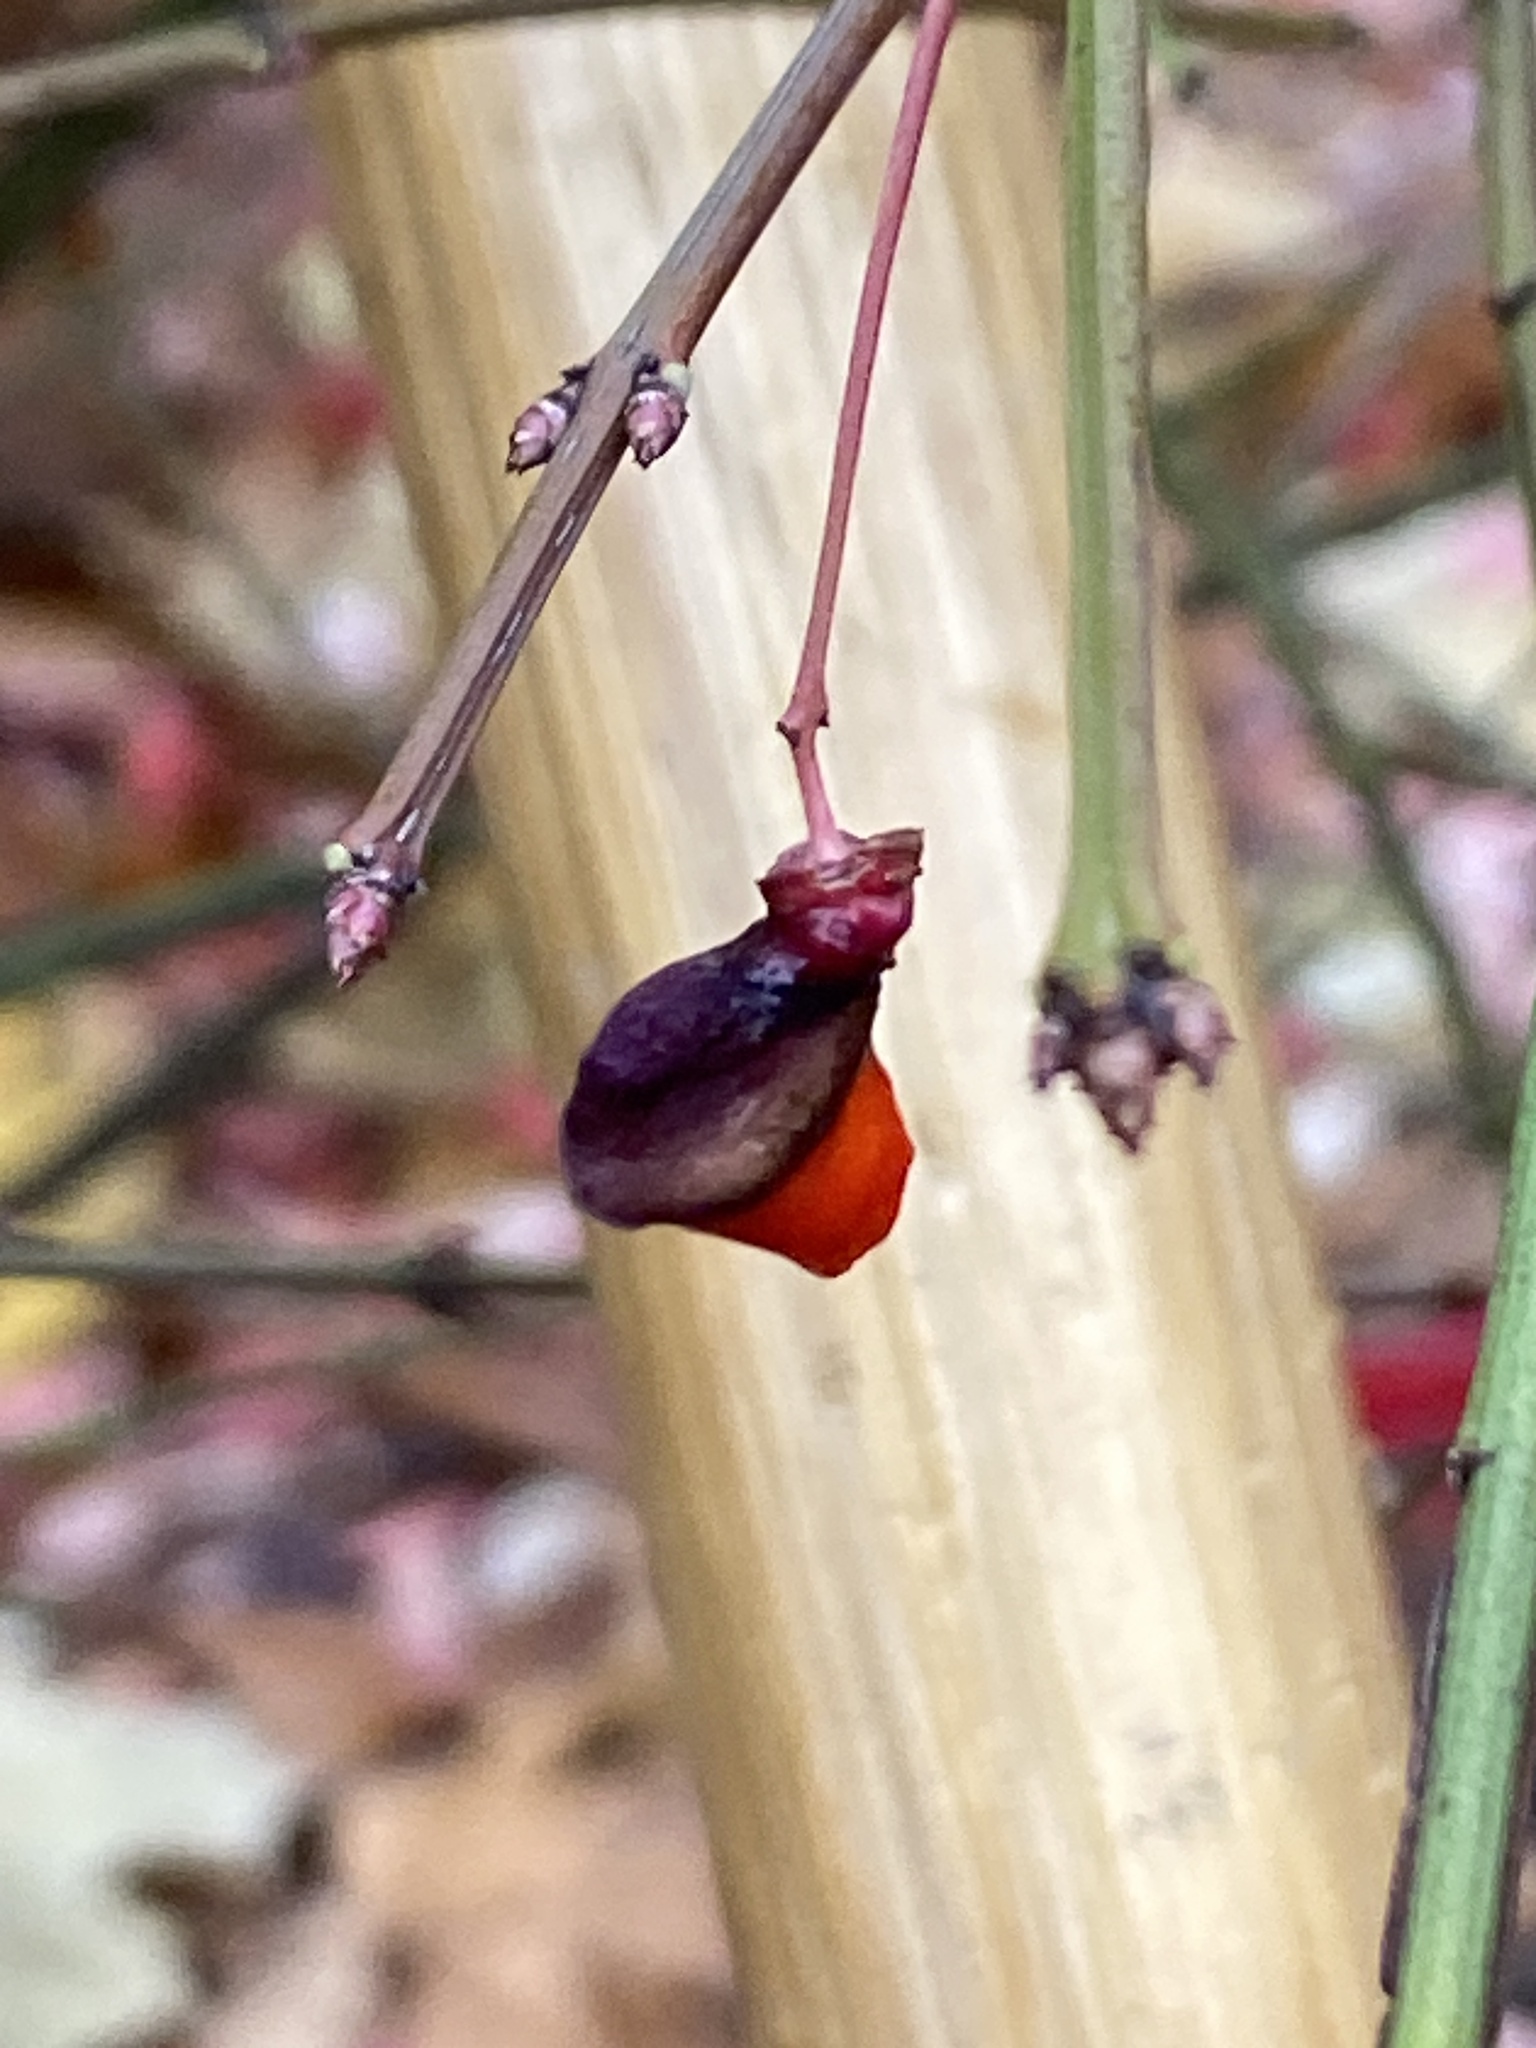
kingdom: Plantae
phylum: Tracheophyta
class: Magnoliopsida
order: Celastrales
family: Celastraceae
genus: Euonymus
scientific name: Euonymus alatus
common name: Winged euonymus
